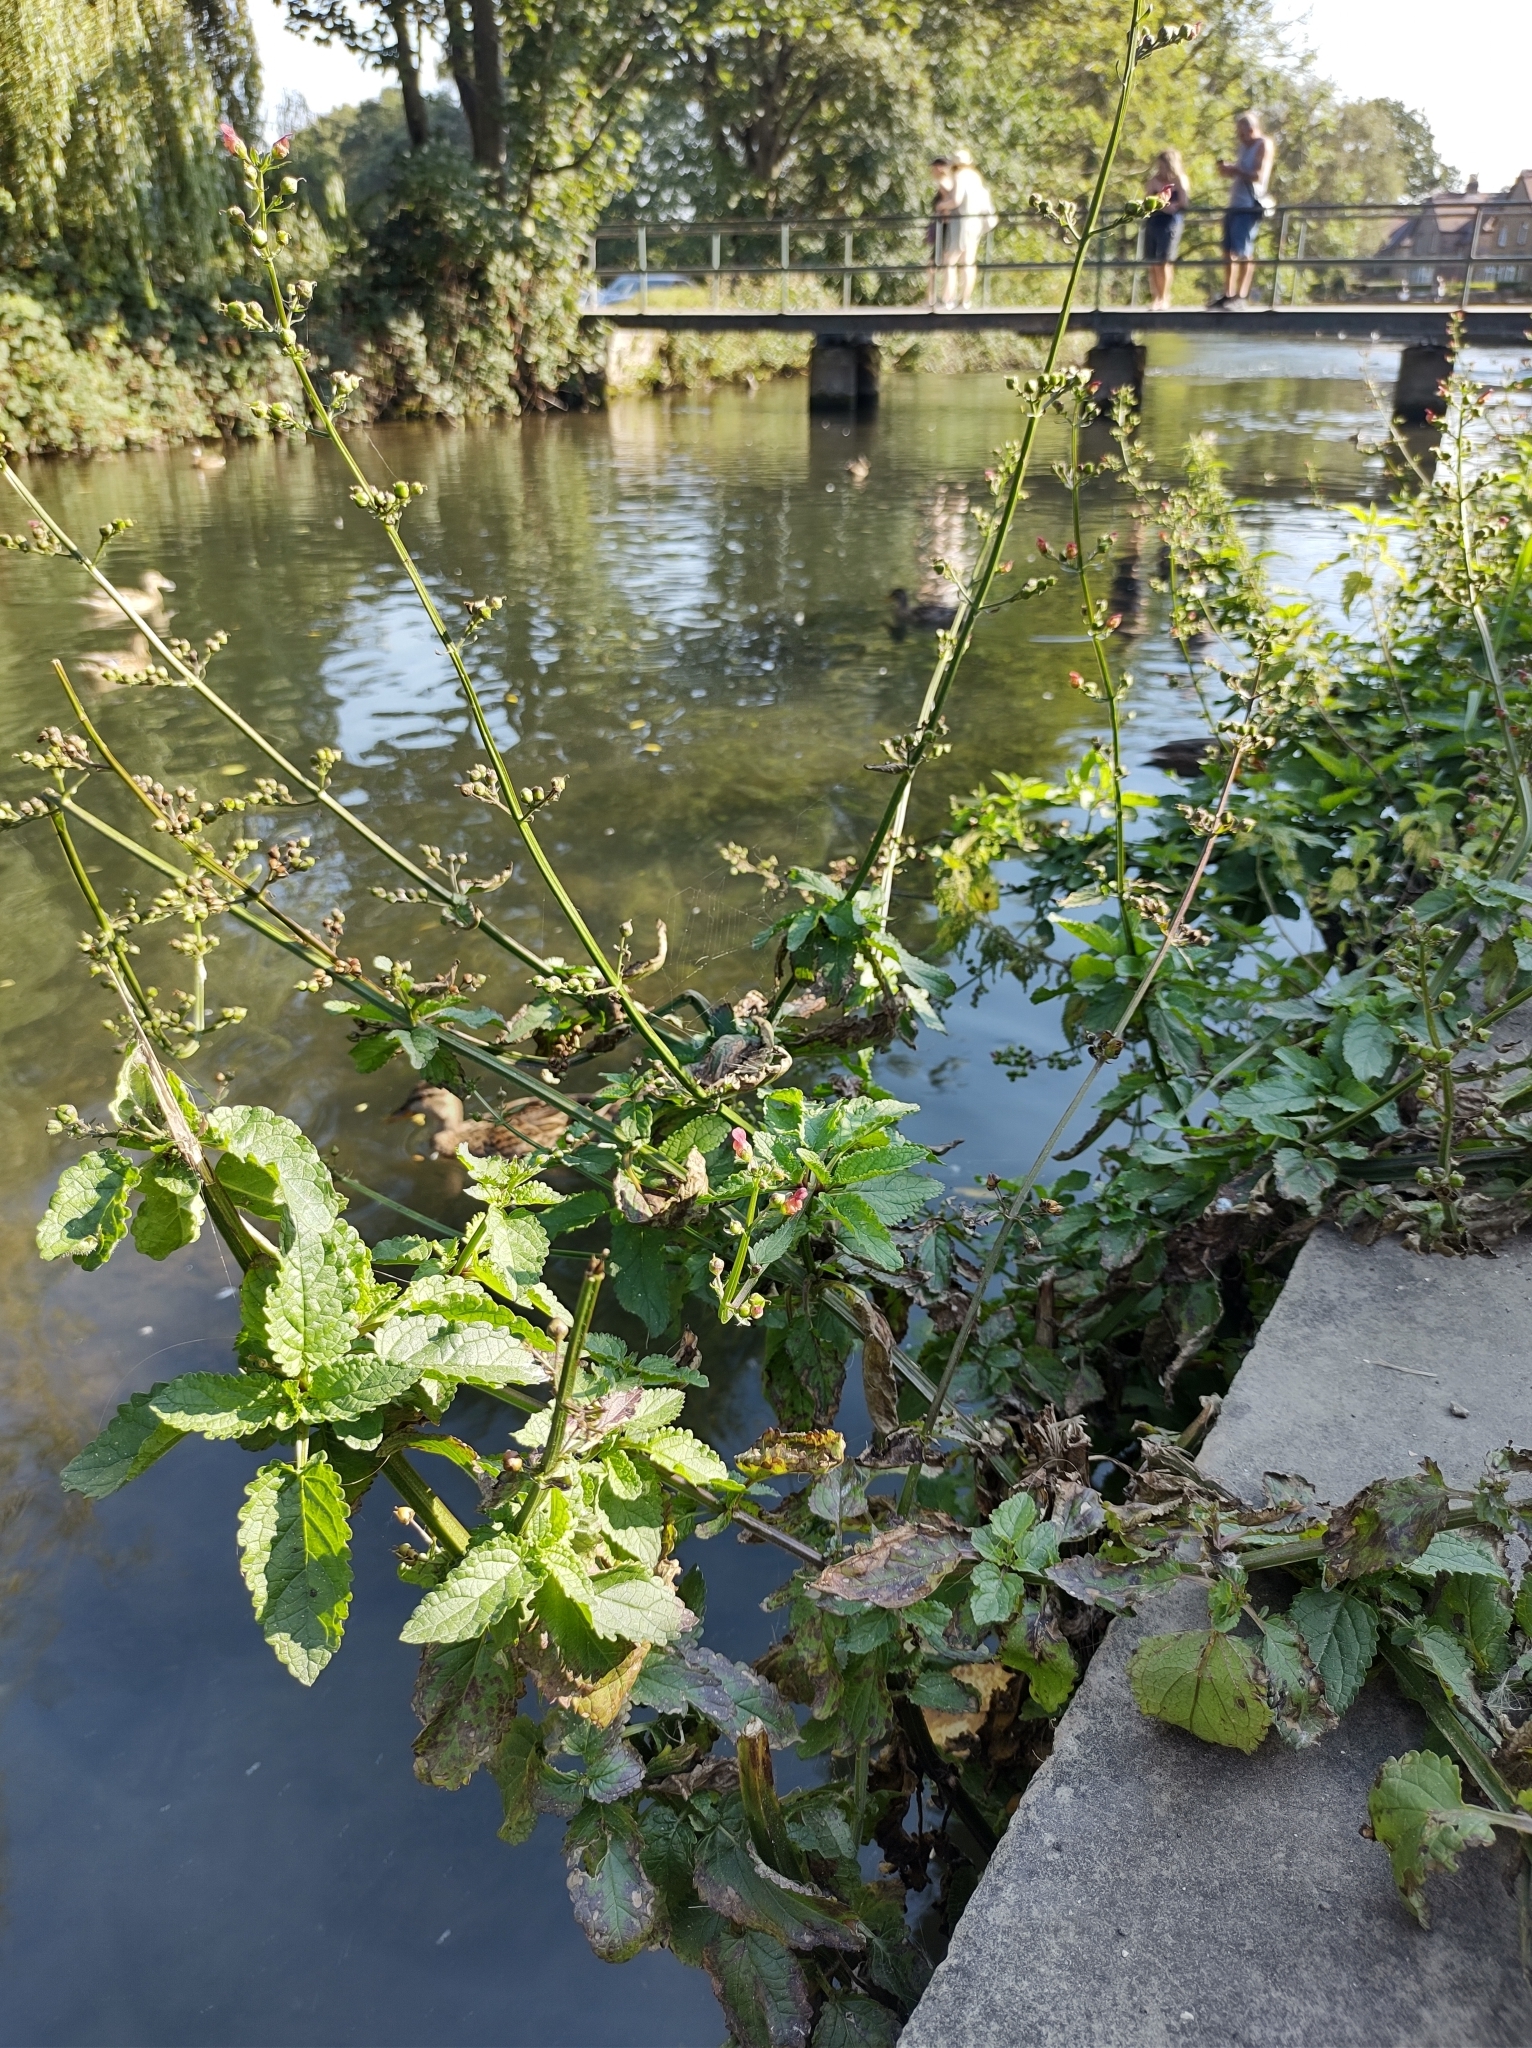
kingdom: Plantae
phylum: Tracheophyta
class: Magnoliopsida
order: Lamiales
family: Scrophulariaceae
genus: Scrophularia
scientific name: Scrophularia auriculata
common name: Water betony
